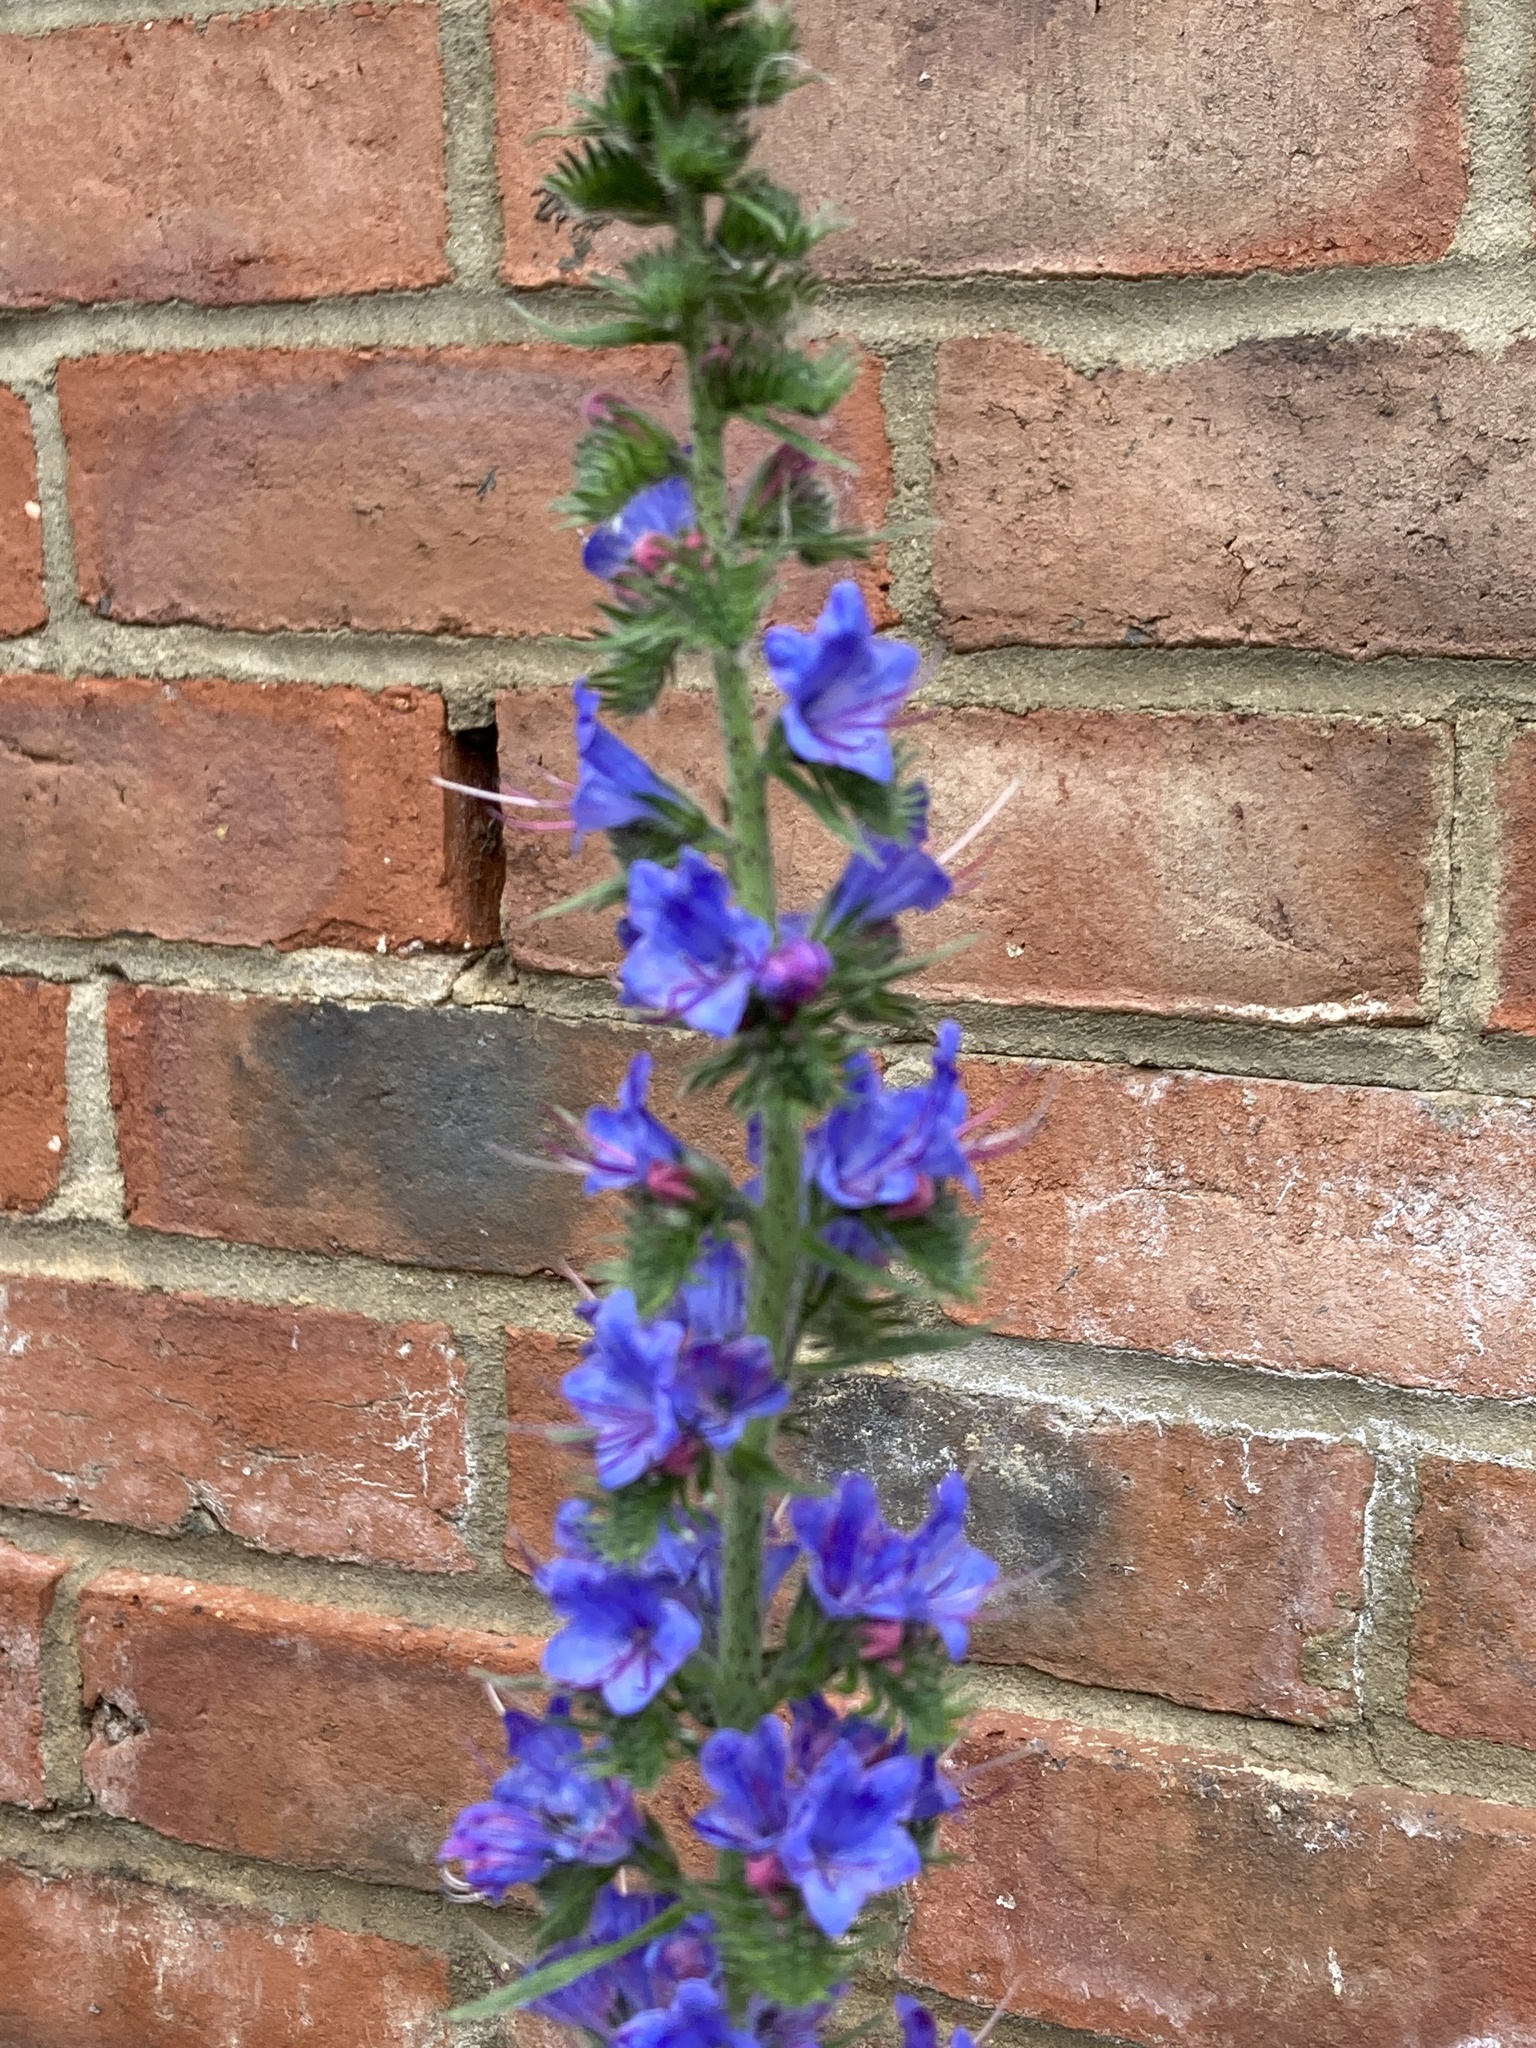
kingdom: Plantae
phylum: Tracheophyta
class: Magnoliopsida
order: Boraginales
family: Boraginaceae
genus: Echium
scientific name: Echium vulgare
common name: Common viper's bugloss
